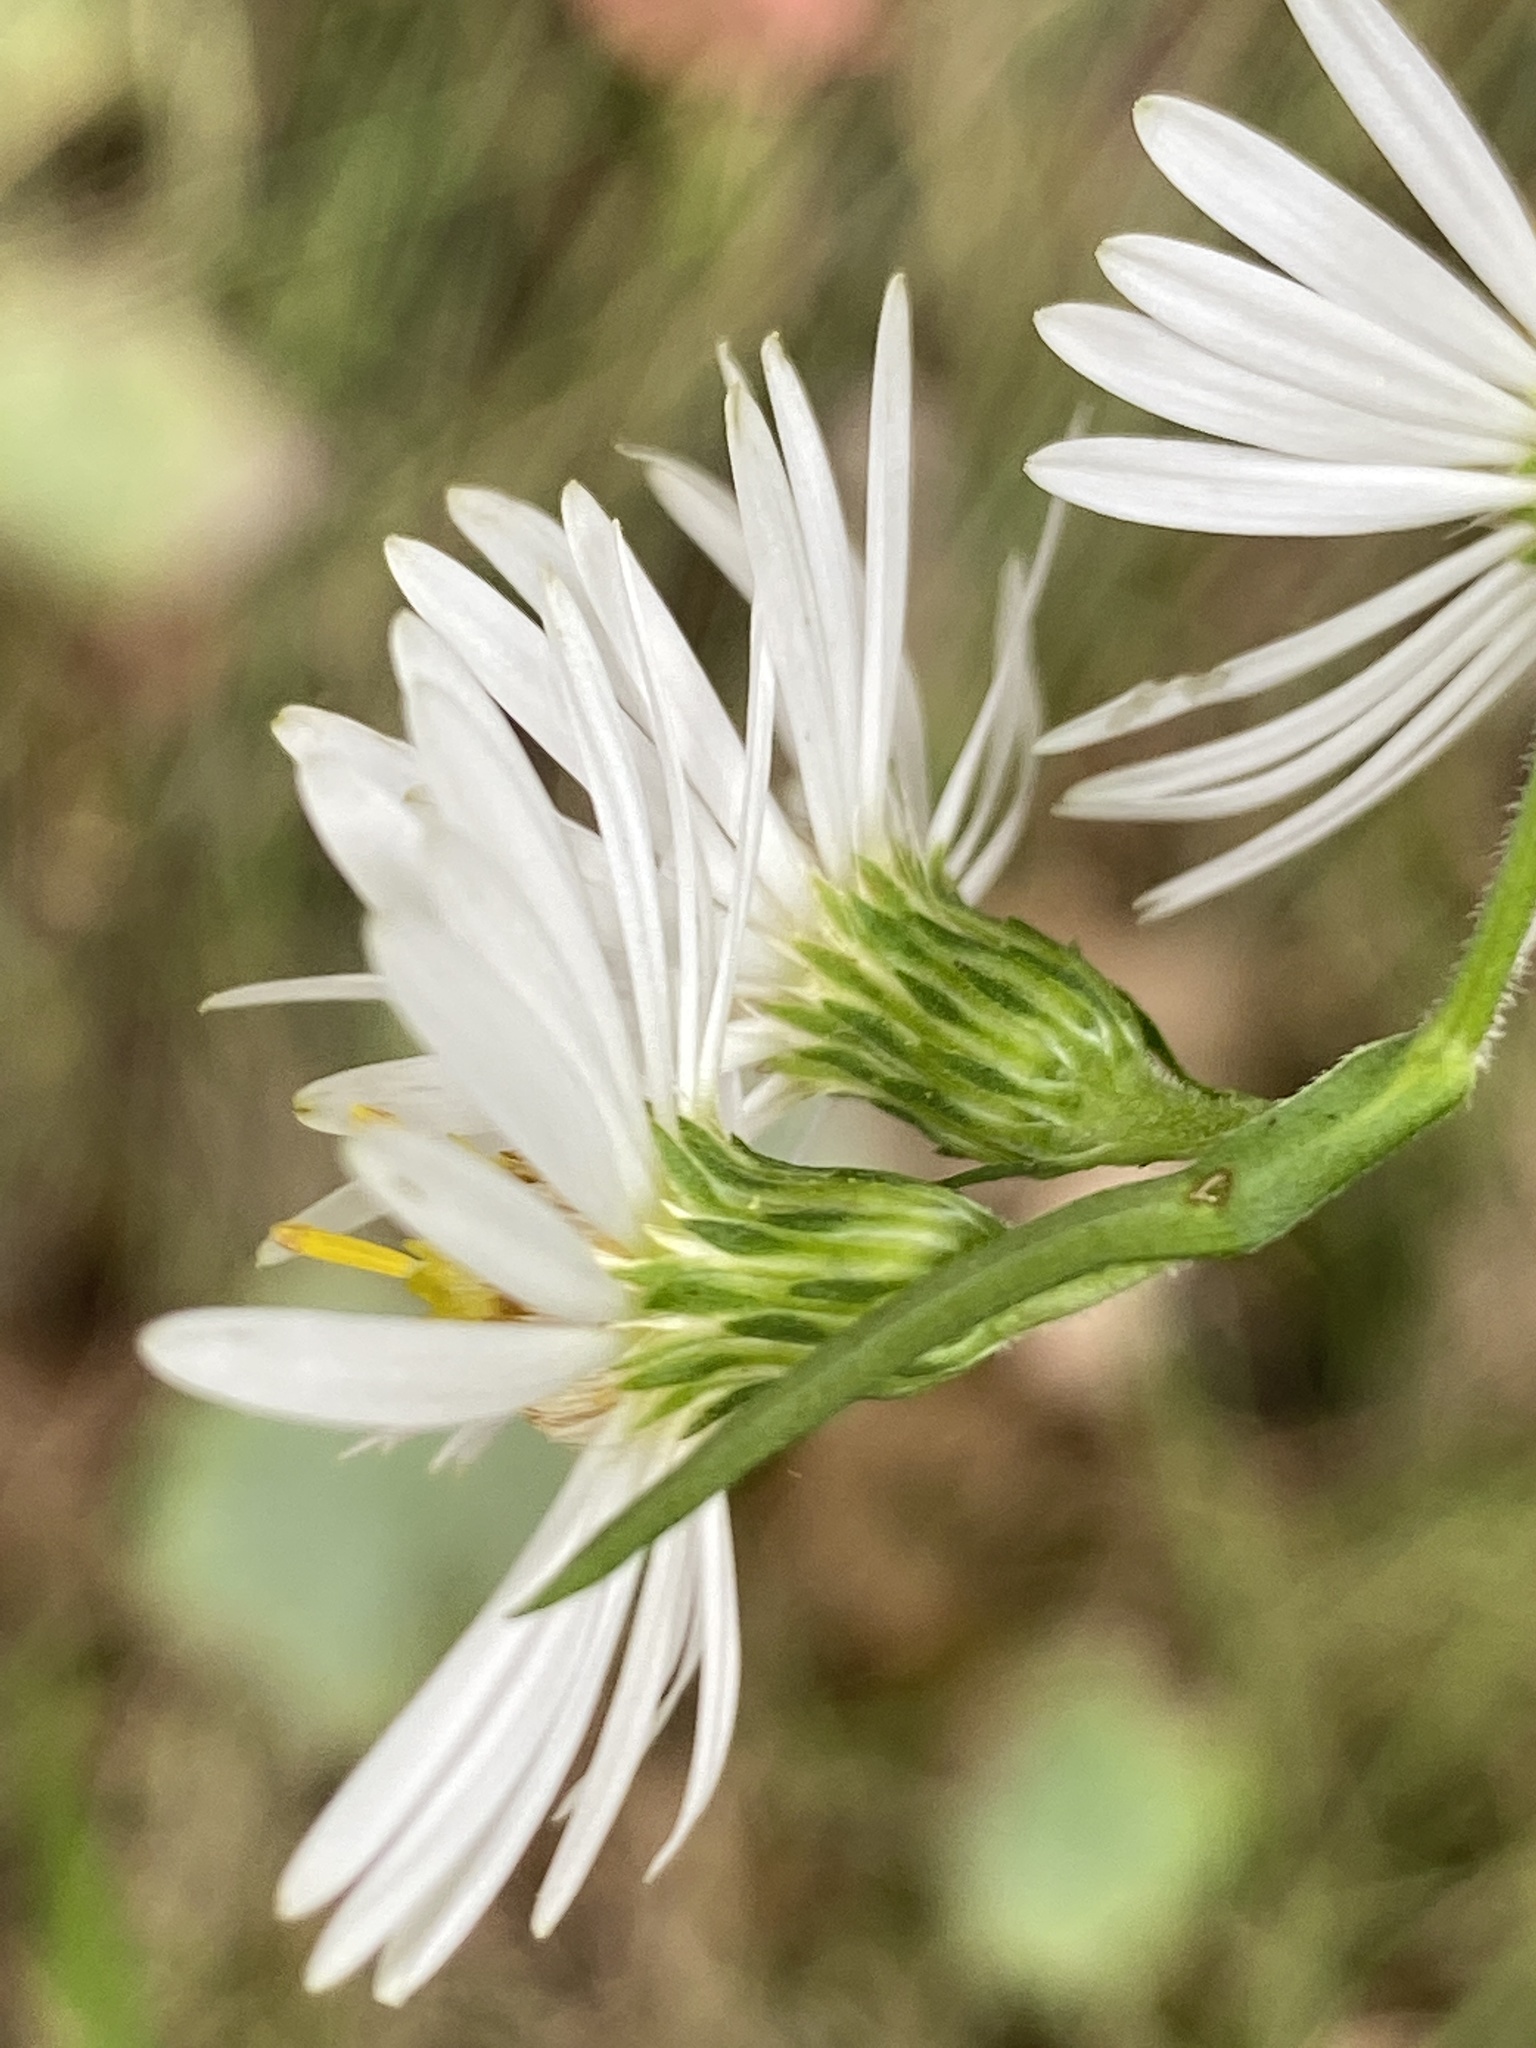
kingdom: Plantae
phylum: Tracheophyta
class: Magnoliopsida
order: Asterales
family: Asteraceae
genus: Symphyotrichum
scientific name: Symphyotrichum lanceolatum
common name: Panicled aster
